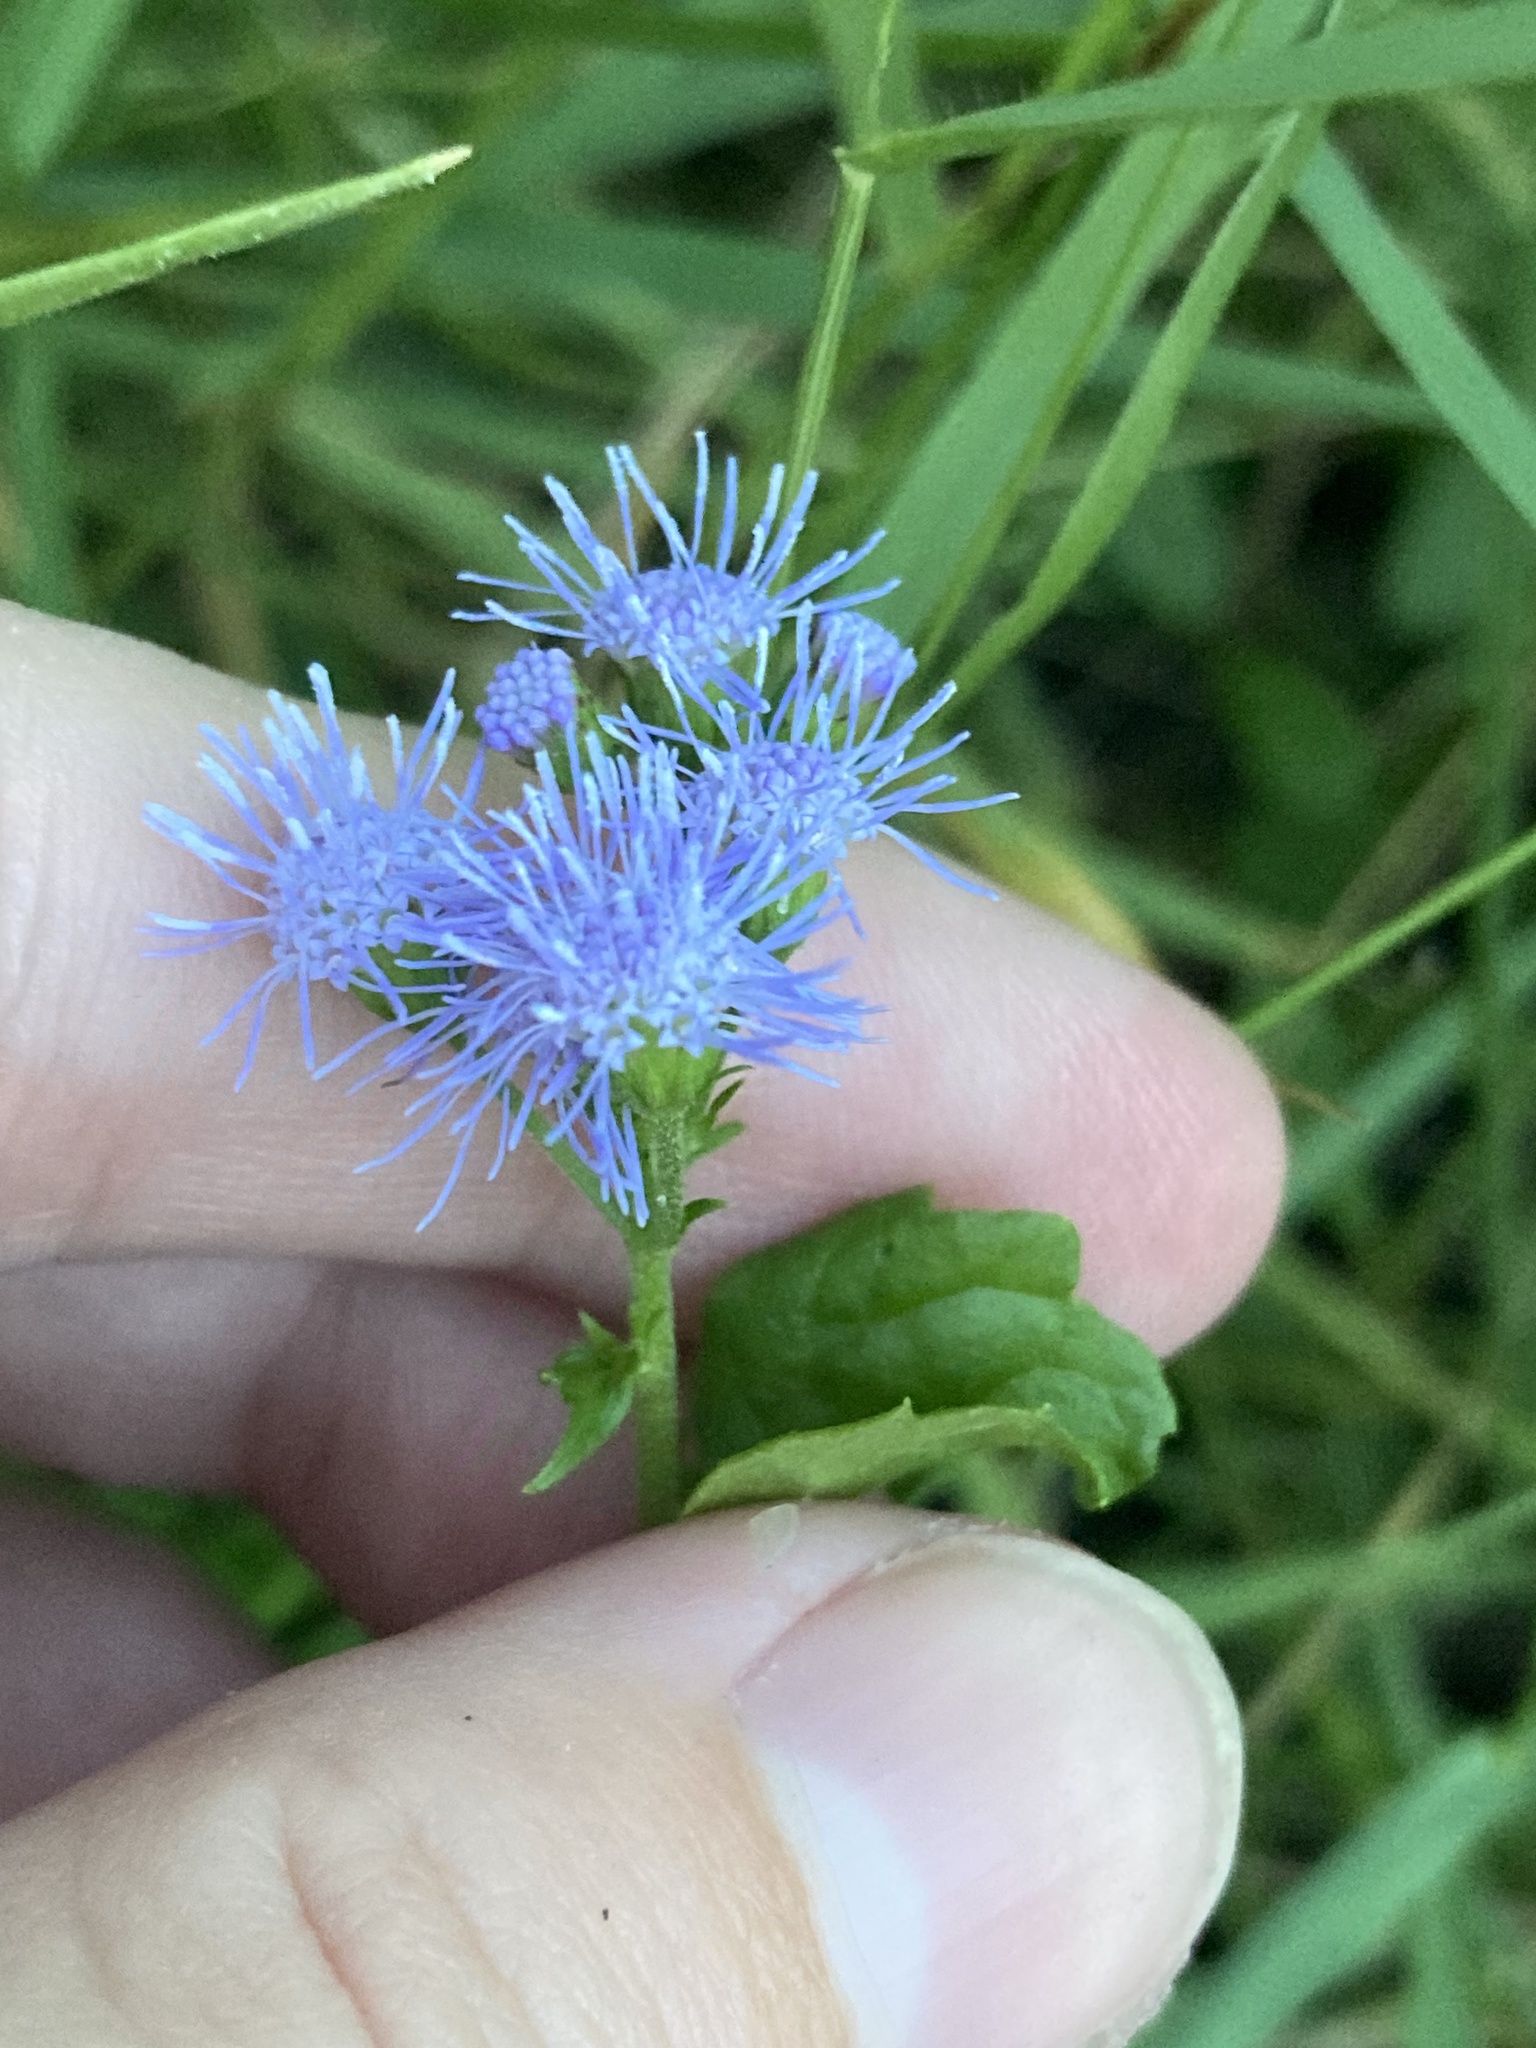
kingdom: Plantae
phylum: Tracheophyta
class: Magnoliopsida
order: Asterales
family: Asteraceae
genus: Conoclinium
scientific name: Conoclinium coelestinum
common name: Blue mistflower
